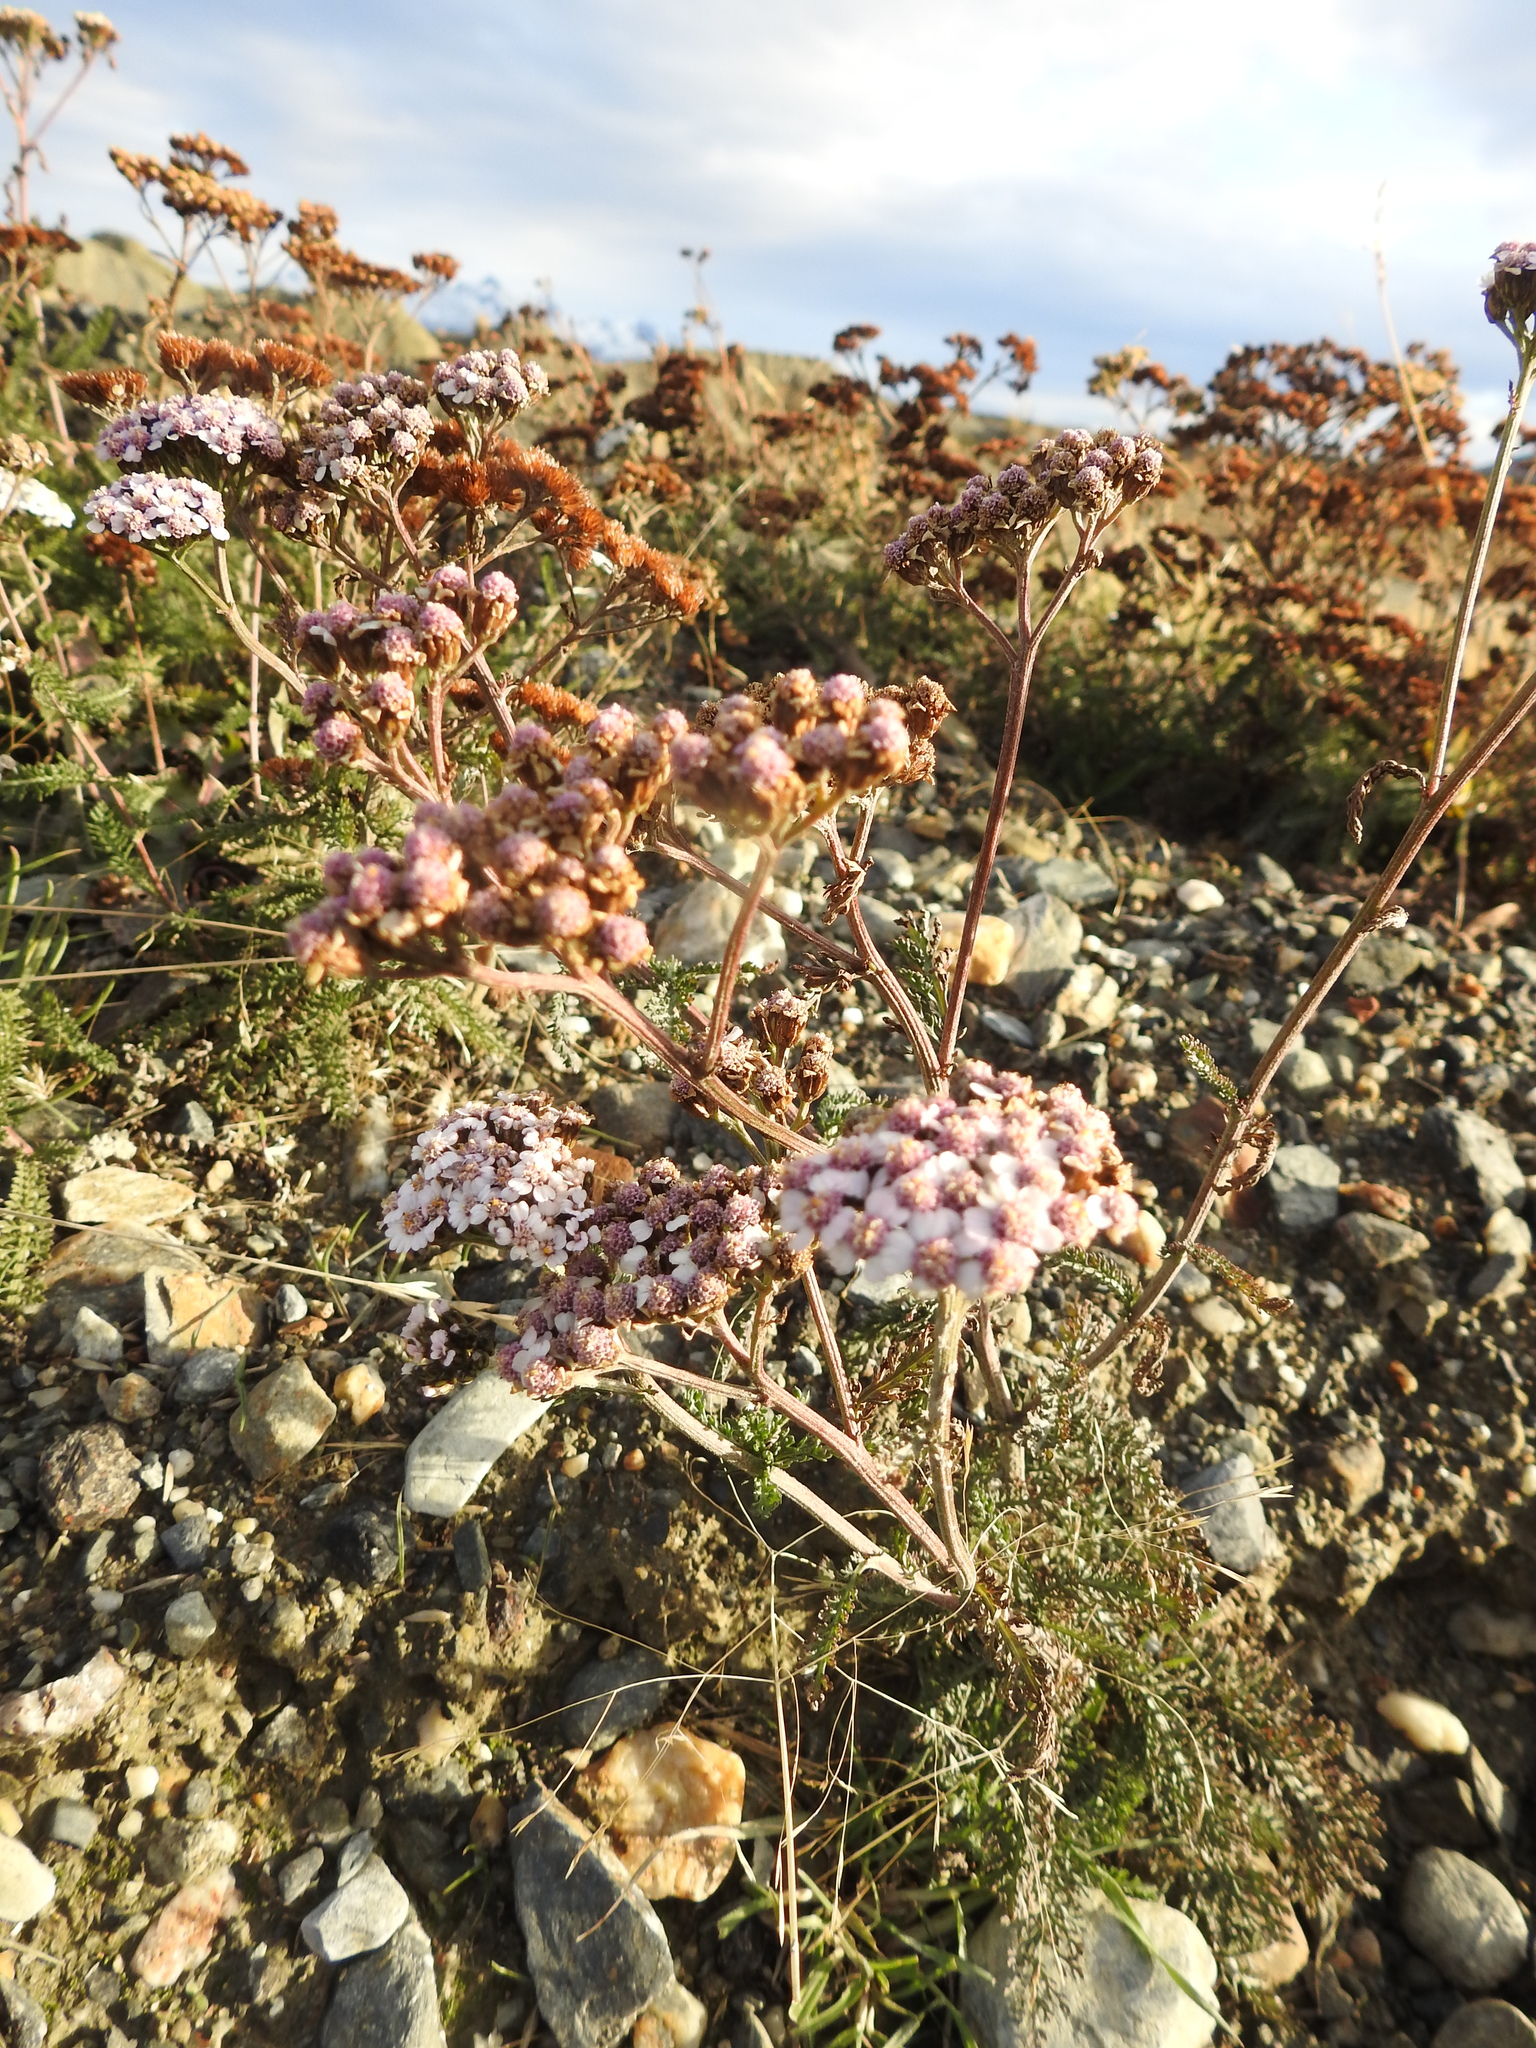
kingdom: Plantae
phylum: Tracheophyta
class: Magnoliopsida
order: Asterales
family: Asteraceae
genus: Achillea
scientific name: Achillea millefolium
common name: Yarrow
